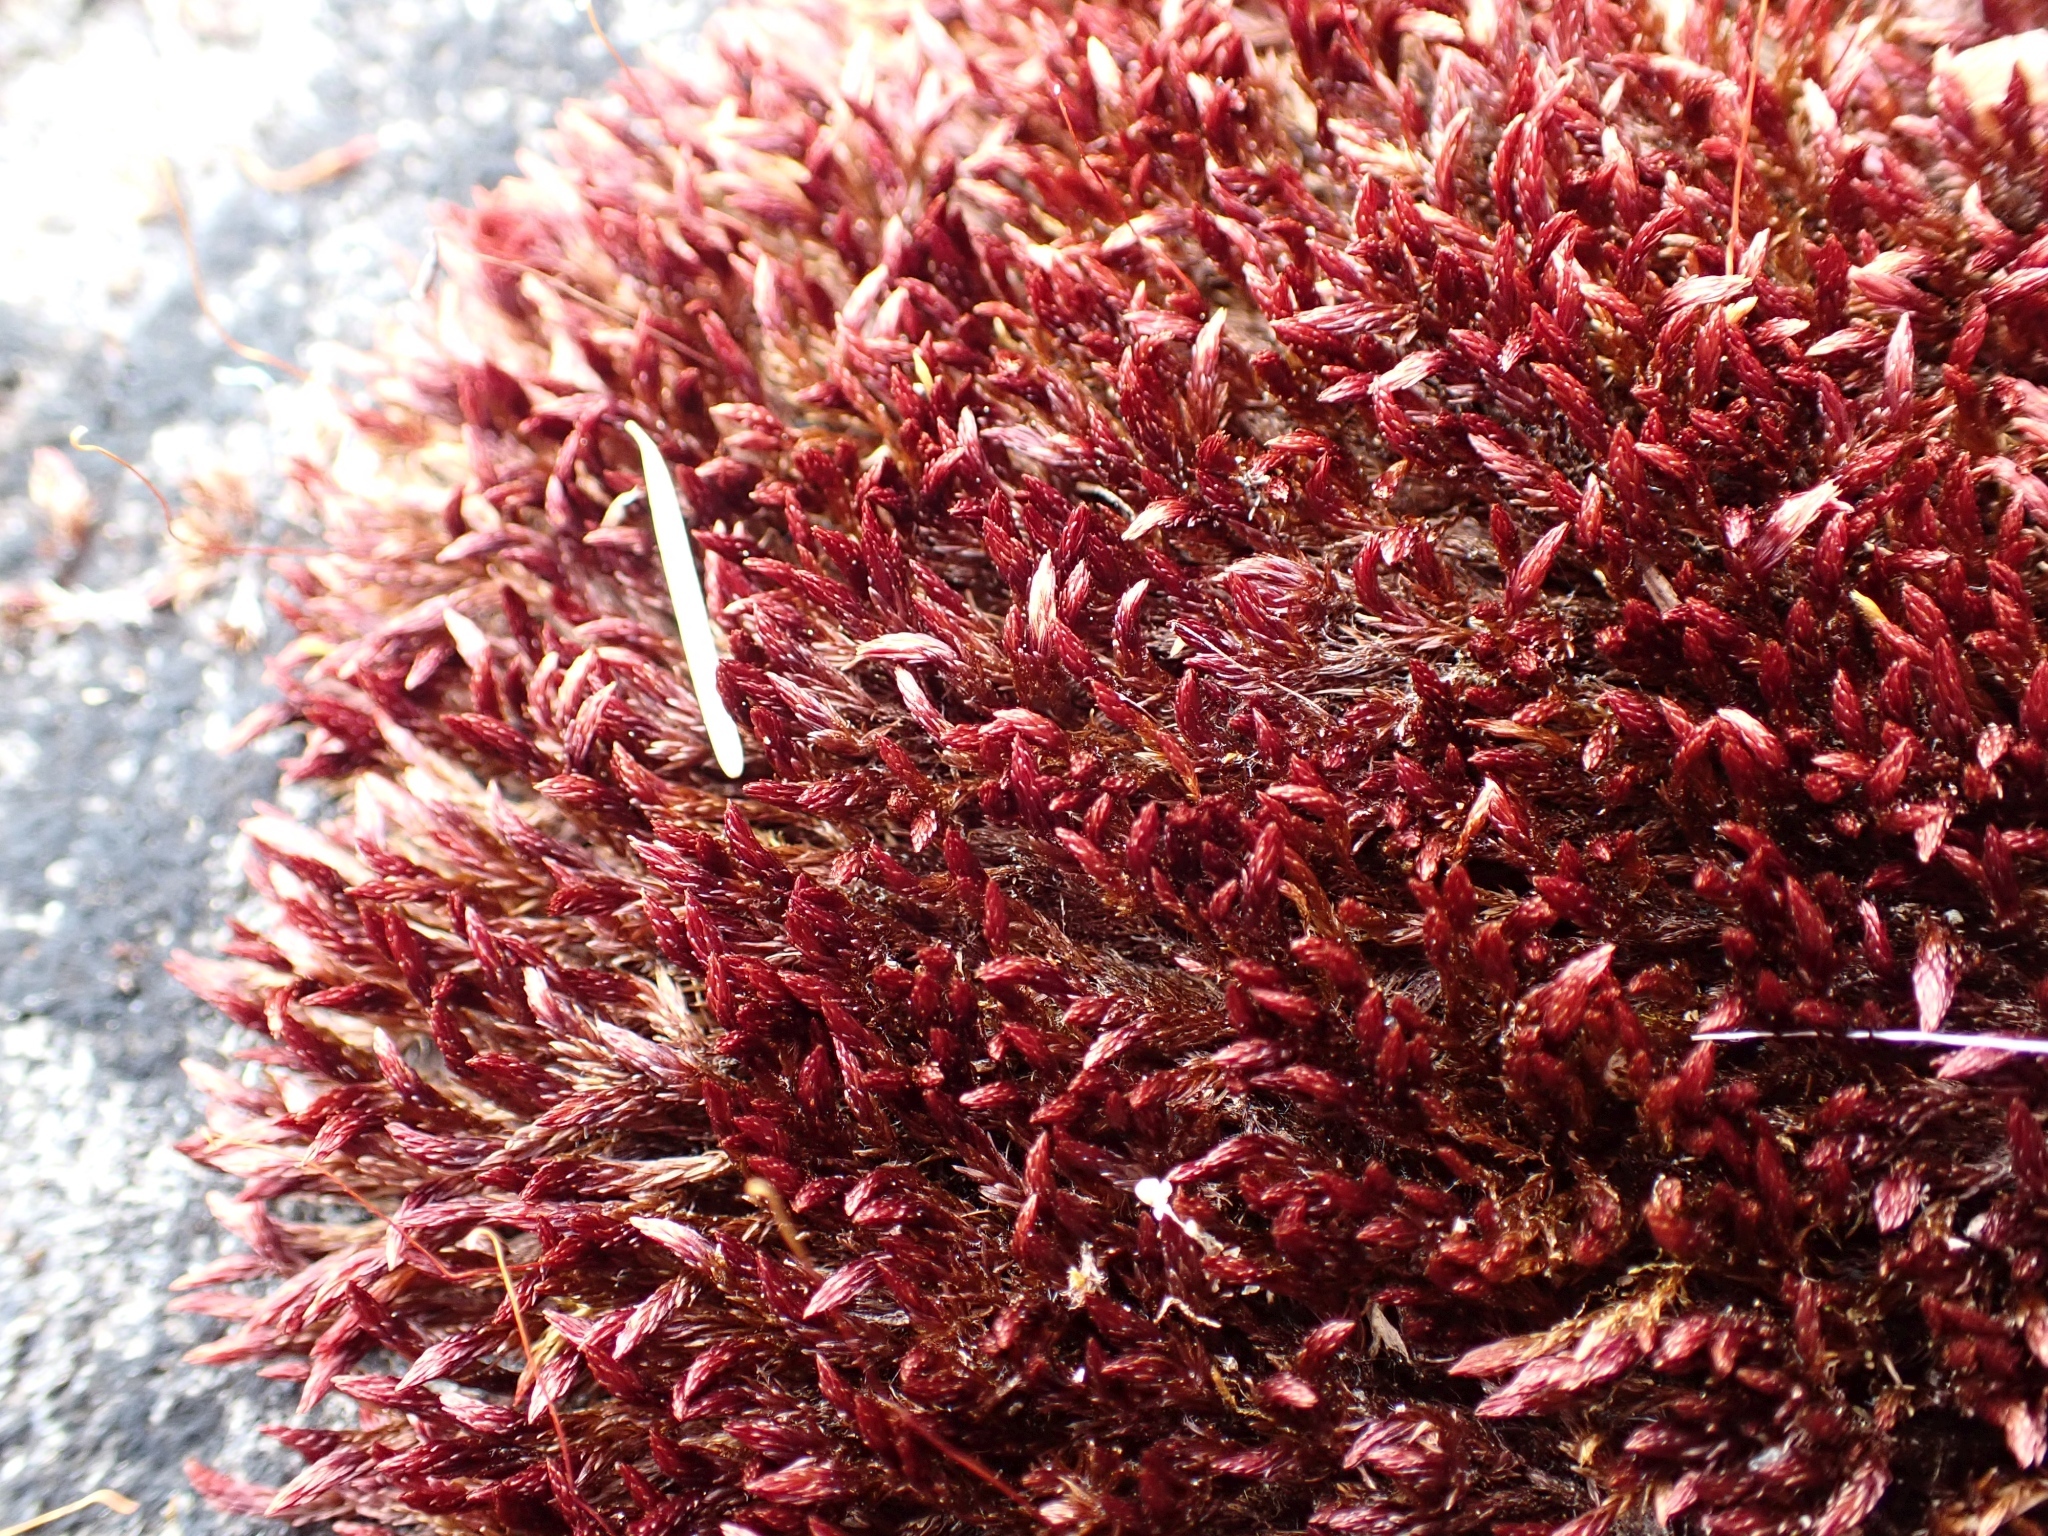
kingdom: Plantae
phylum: Bryophyta
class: Bryopsida
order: Bryales
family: Bryaceae
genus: Imbribryum
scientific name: Imbribryum miniatum
